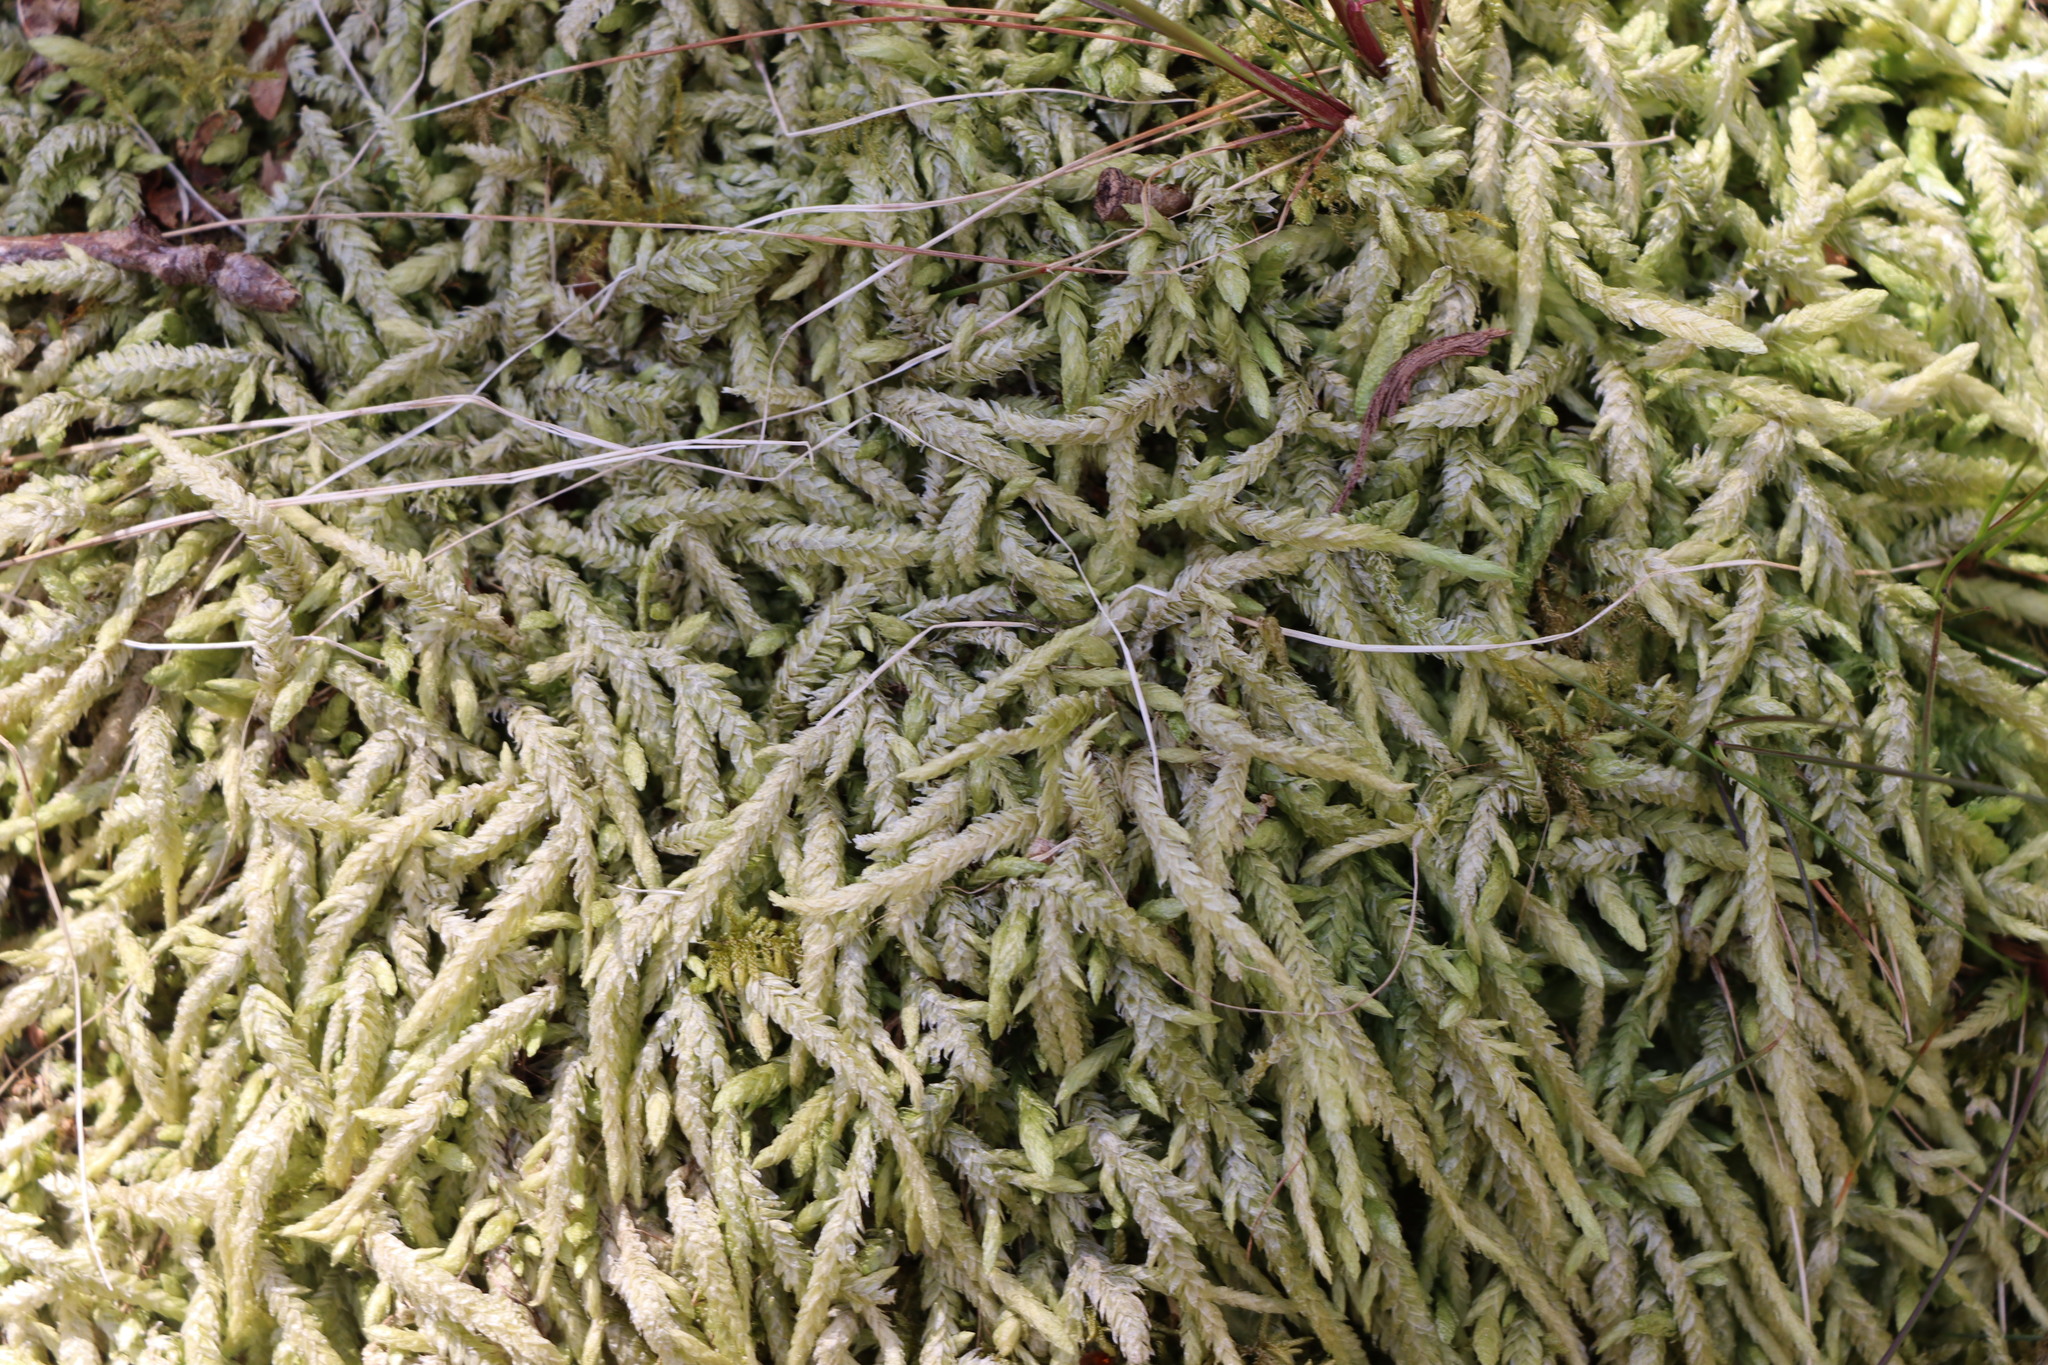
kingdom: Plantae
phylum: Bryophyta
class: Bryopsida
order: Hypnales
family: Plagiotheciaceae
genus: Plagiothecium
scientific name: Plagiothecium undulatum
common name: Waved silk-moss
